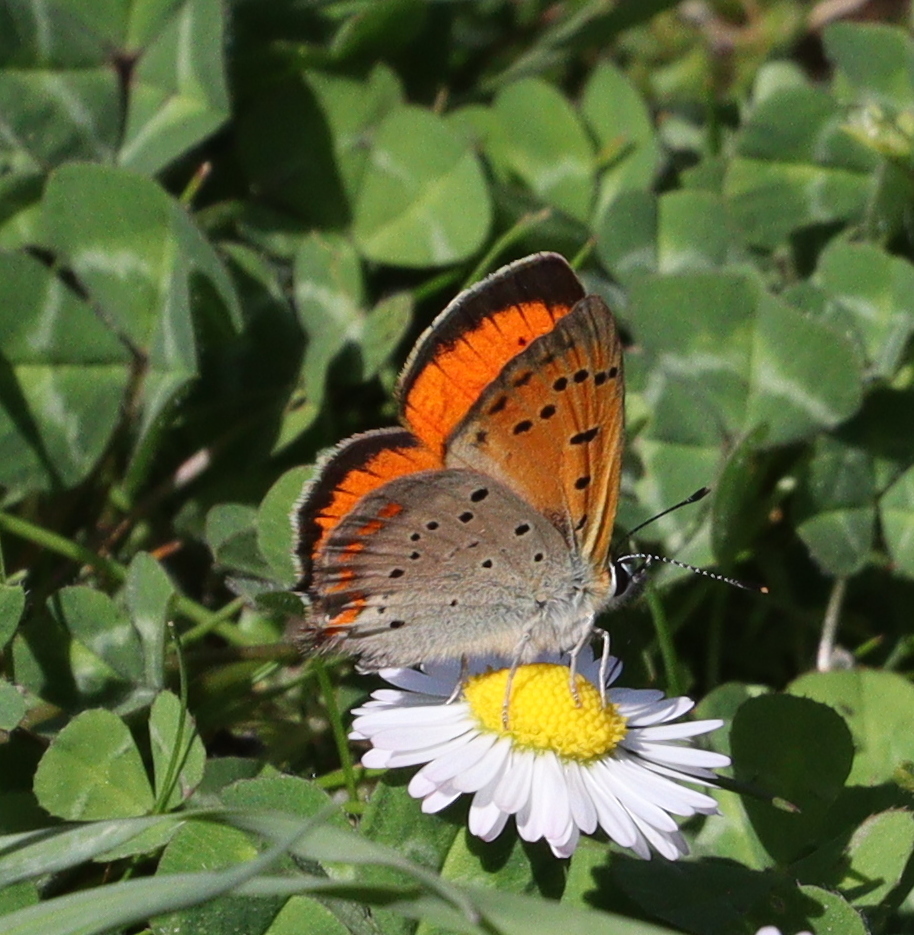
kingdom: Animalia
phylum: Arthropoda
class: Insecta
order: Lepidoptera
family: Lycaenidae
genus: Polyommatus
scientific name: Polyommatus ottomanus
